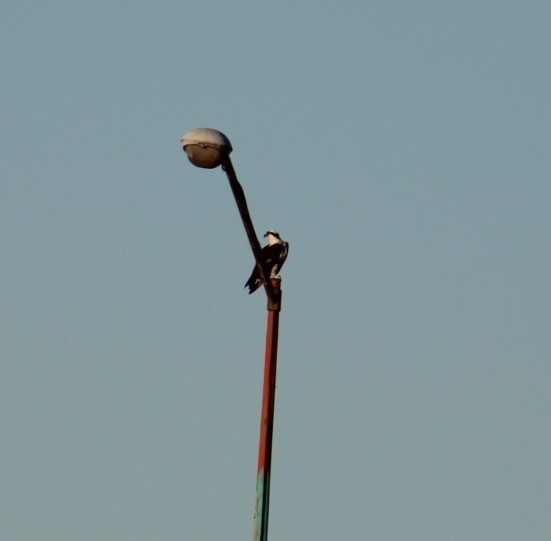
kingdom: Animalia
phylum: Chordata
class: Aves
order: Accipitriformes
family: Pandionidae
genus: Pandion
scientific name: Pandion haliaetus
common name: Osprey
